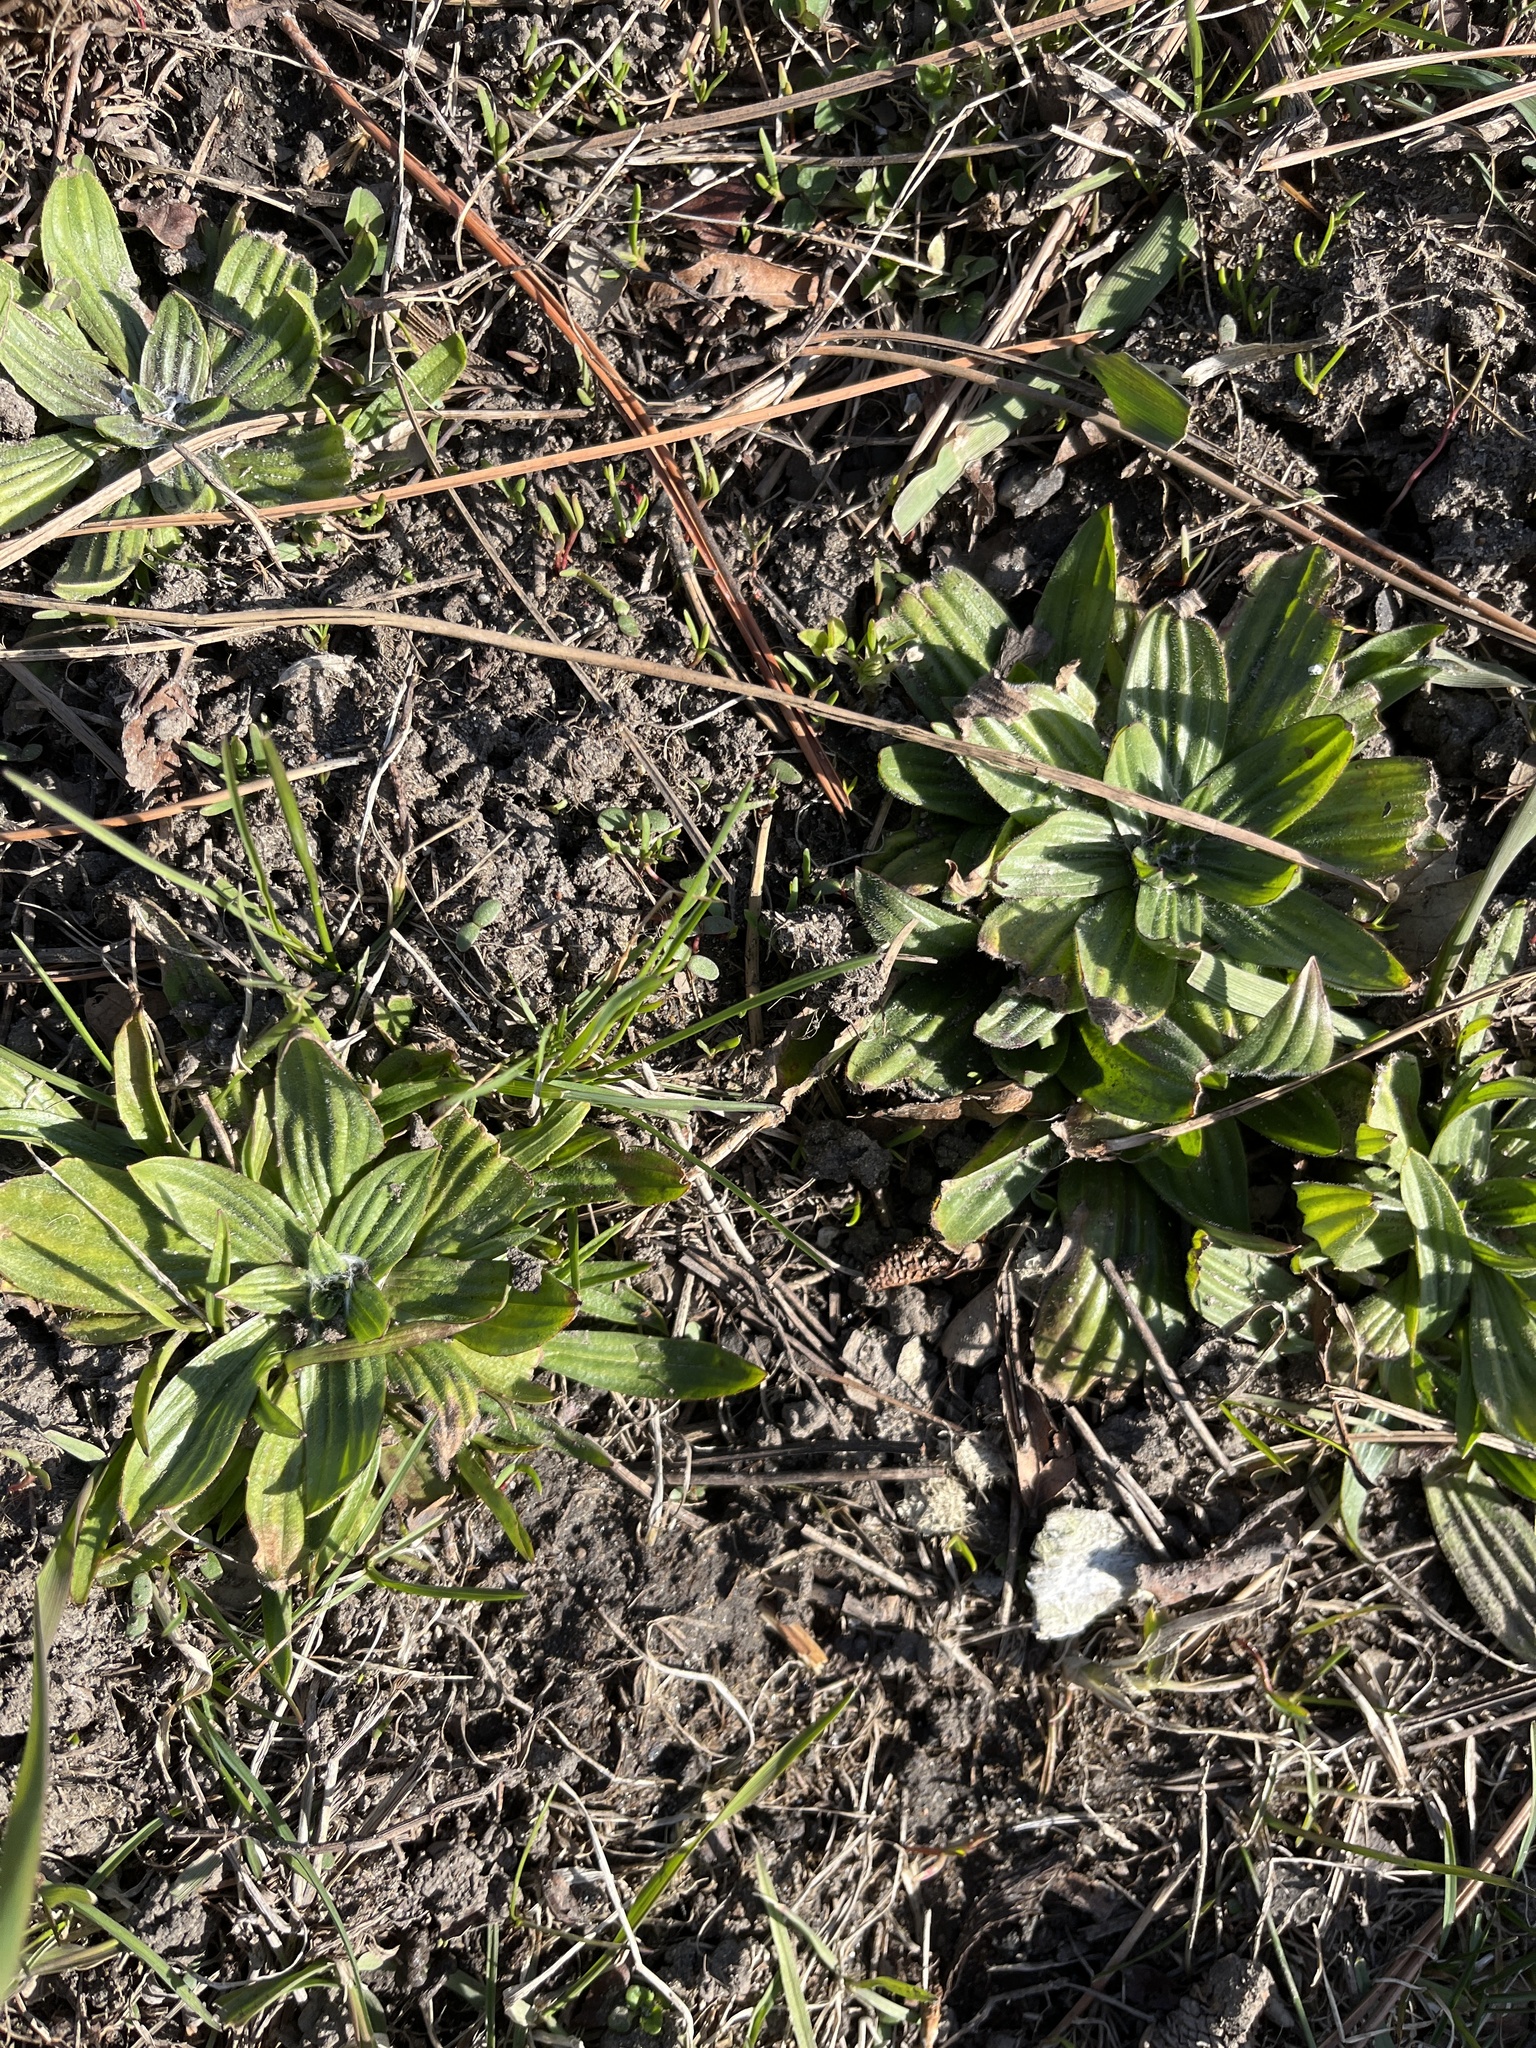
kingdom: Plantae
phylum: Tracheophyta
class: Magnoliopsida
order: Lamiales
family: Plantaginaceae
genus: Plantago
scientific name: Plantago lanceolata
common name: Ribwort plantain
